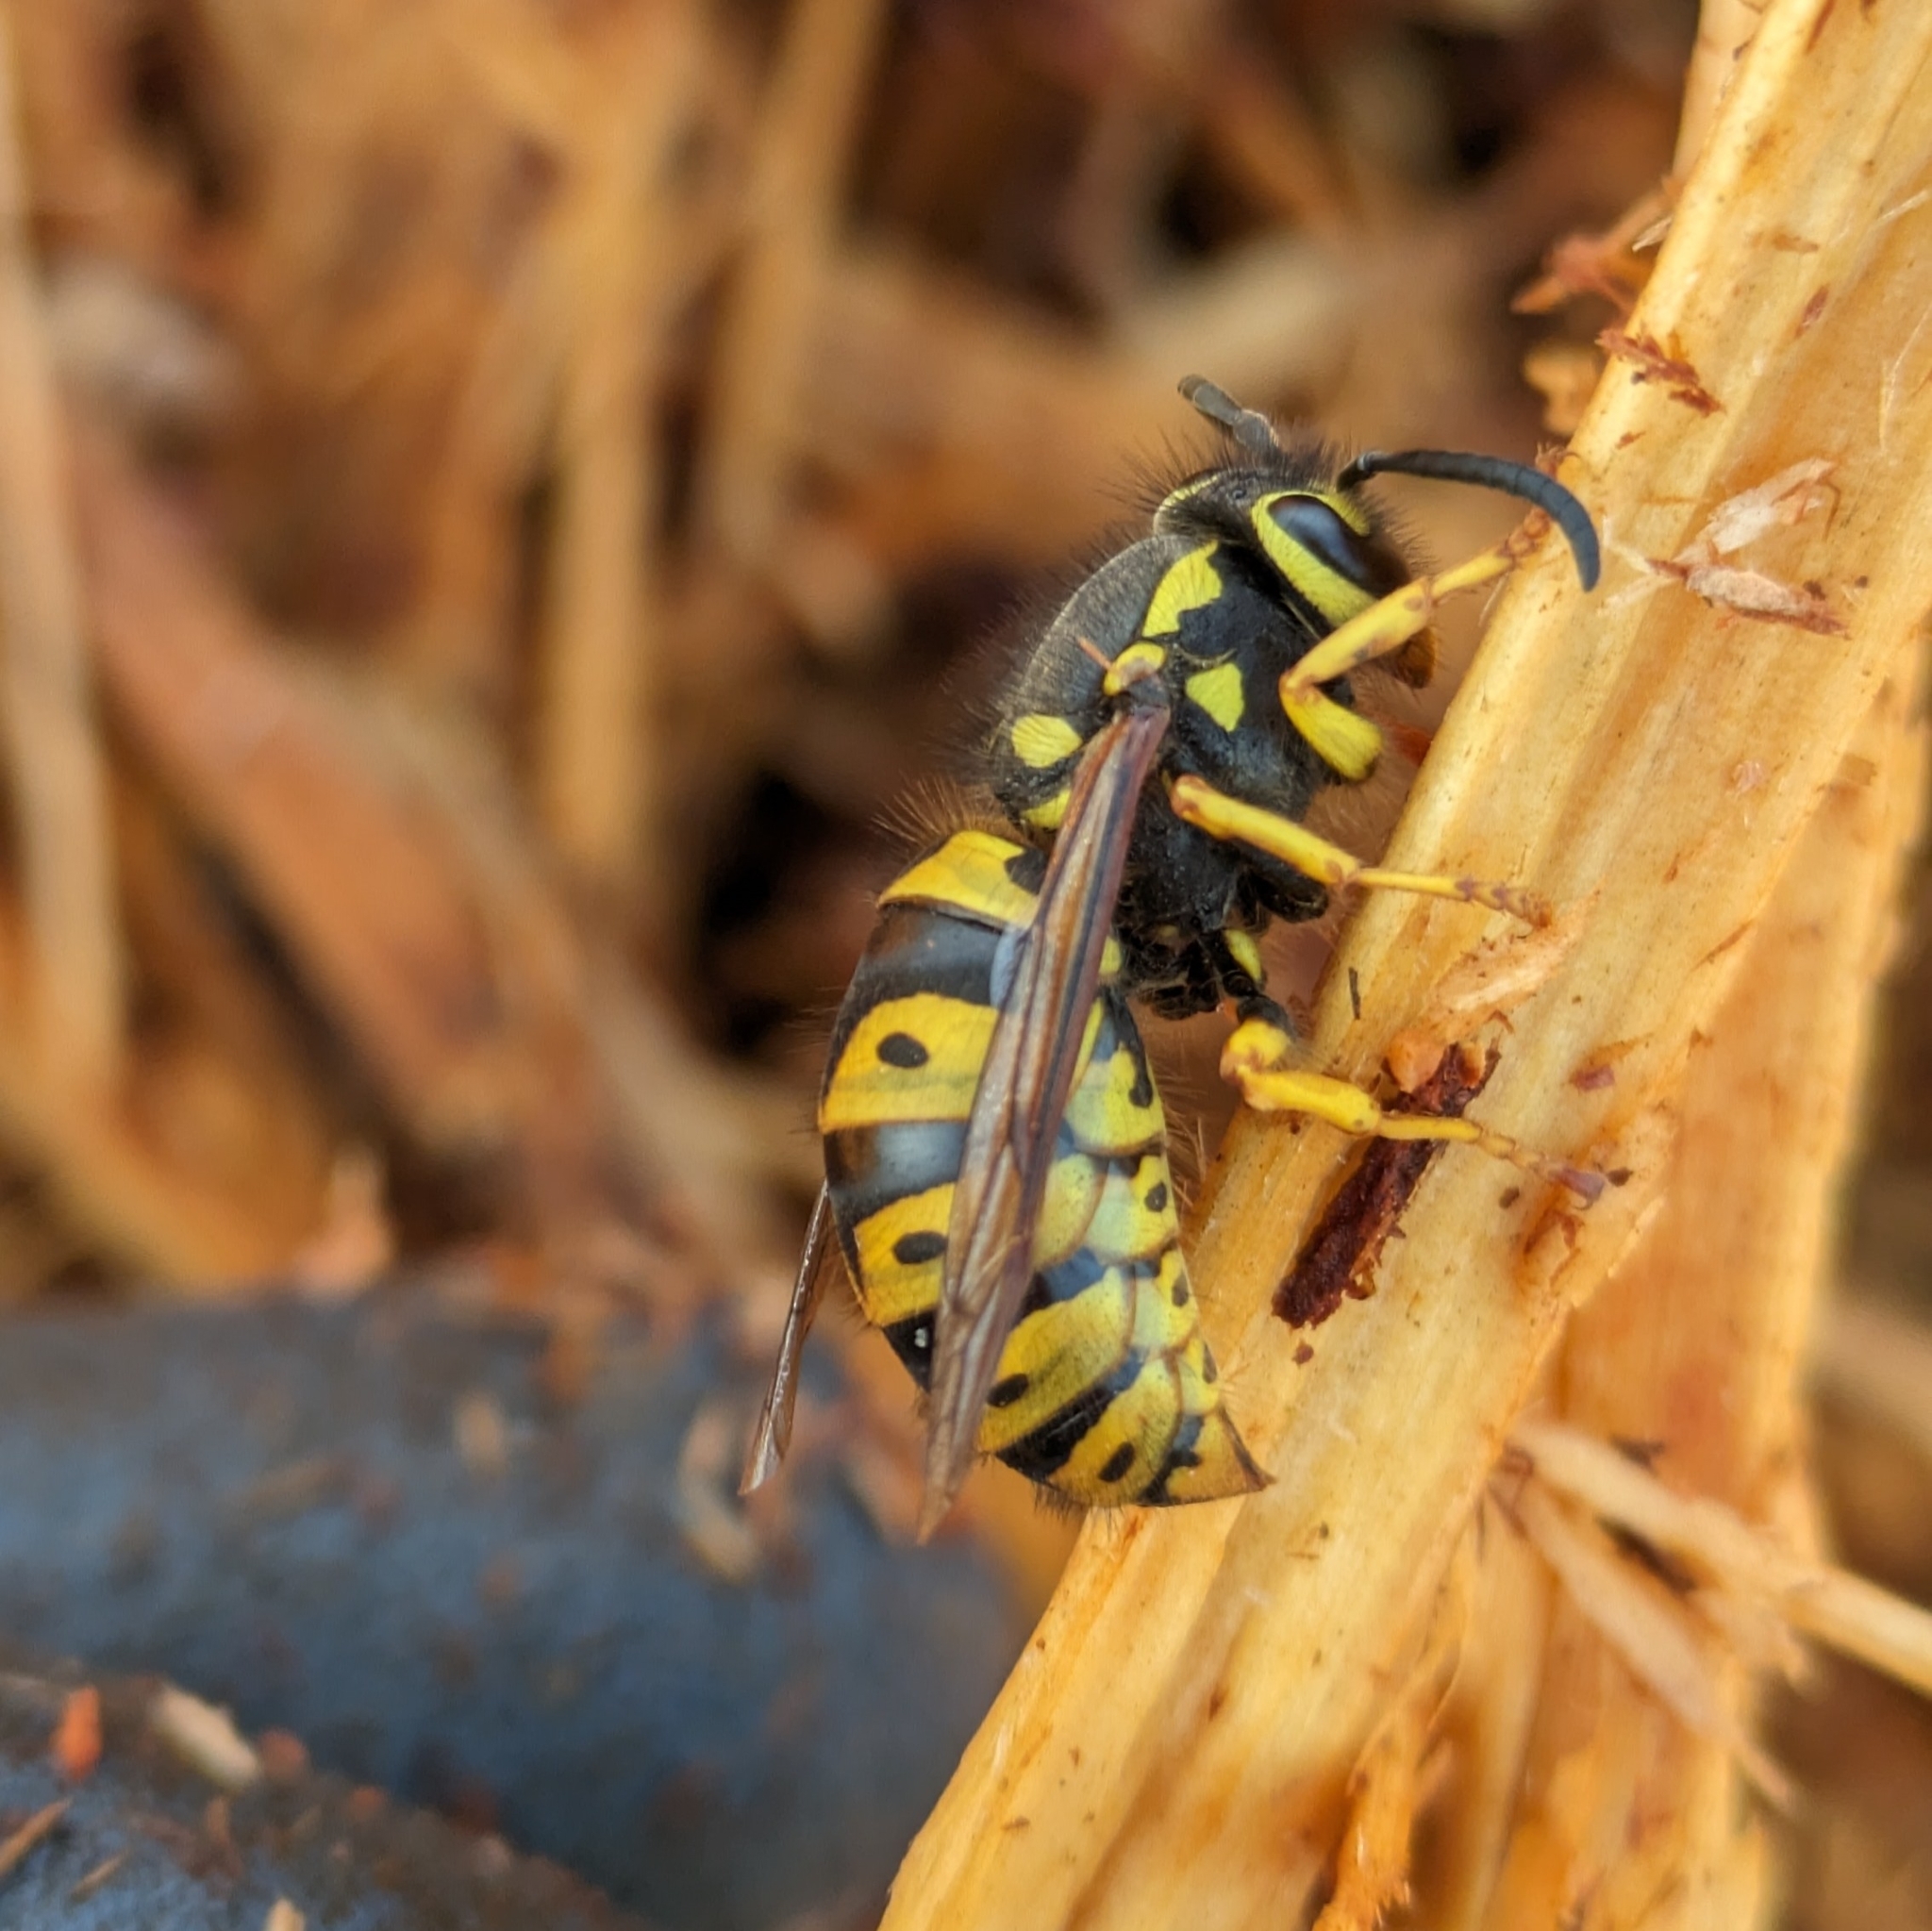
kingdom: Animalia
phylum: Arthropoda
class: Insecta
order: Hymenoptera
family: Vespidae
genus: Vespula
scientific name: Vespula pensylvanica
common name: Western yellowjacket
